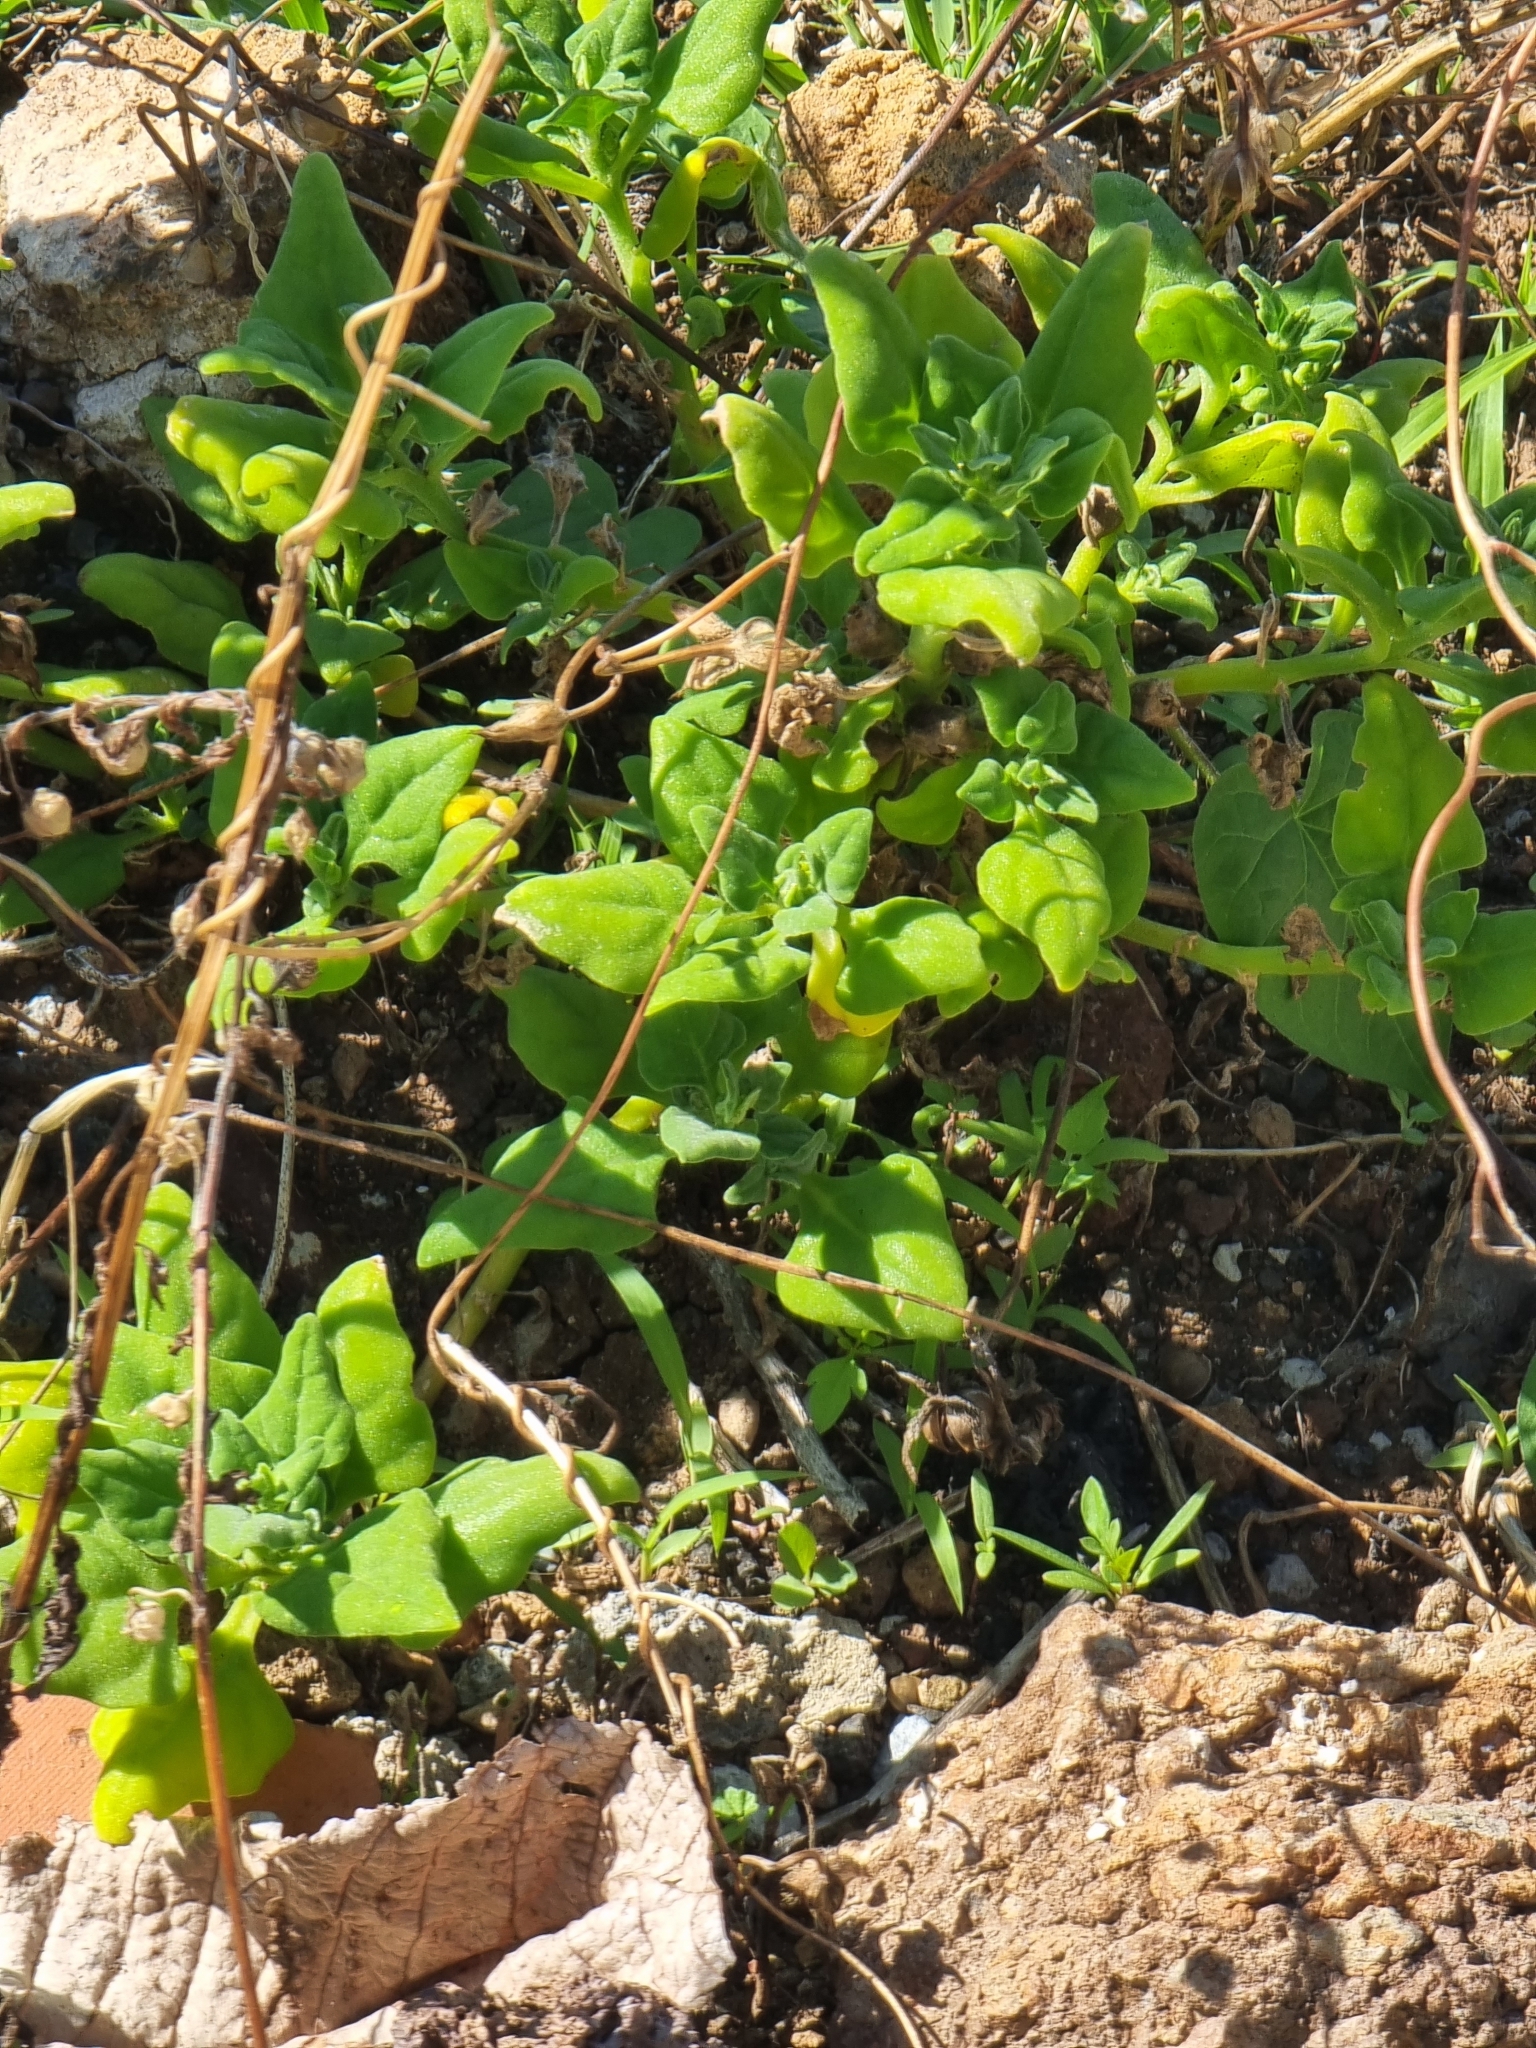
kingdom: Plantae
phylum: Tracheophyta
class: Magnoliopsida
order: Caryophyllales
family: Aizoaceae
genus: Tetragonia
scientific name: Tetragonia tetragonoides
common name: New zealand-spinach
